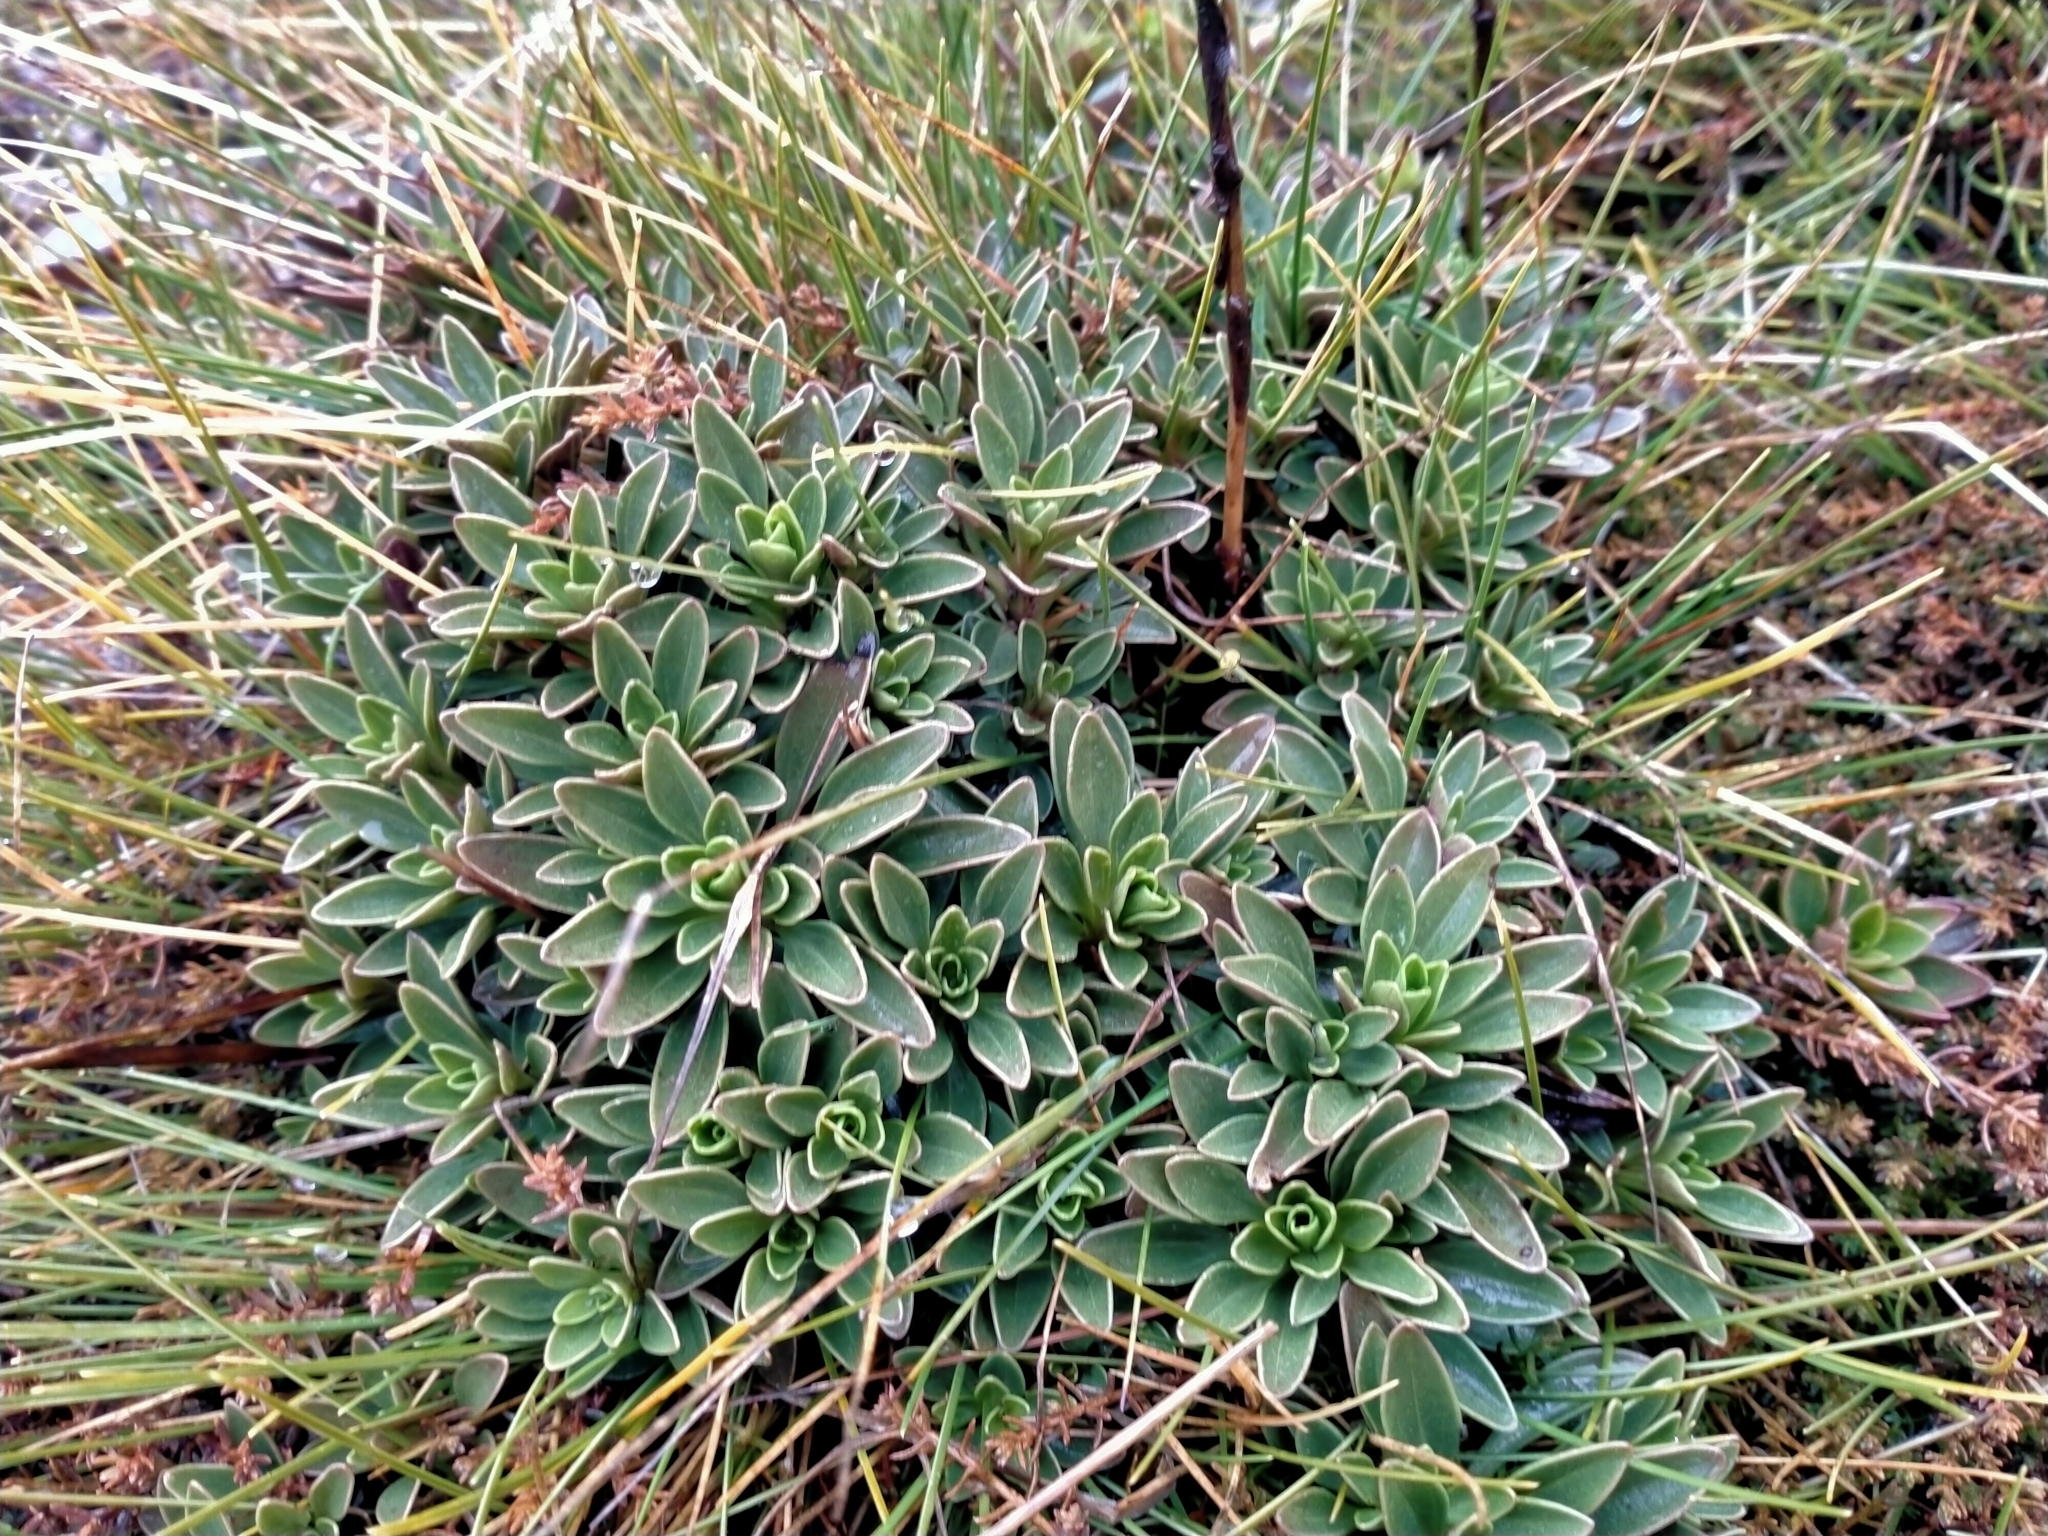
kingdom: Plantae
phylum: Tracheophyta
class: Magnoliopsida
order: Gentianales
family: Gentianaceae
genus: Gentianella
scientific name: Gentianella impressinervia
